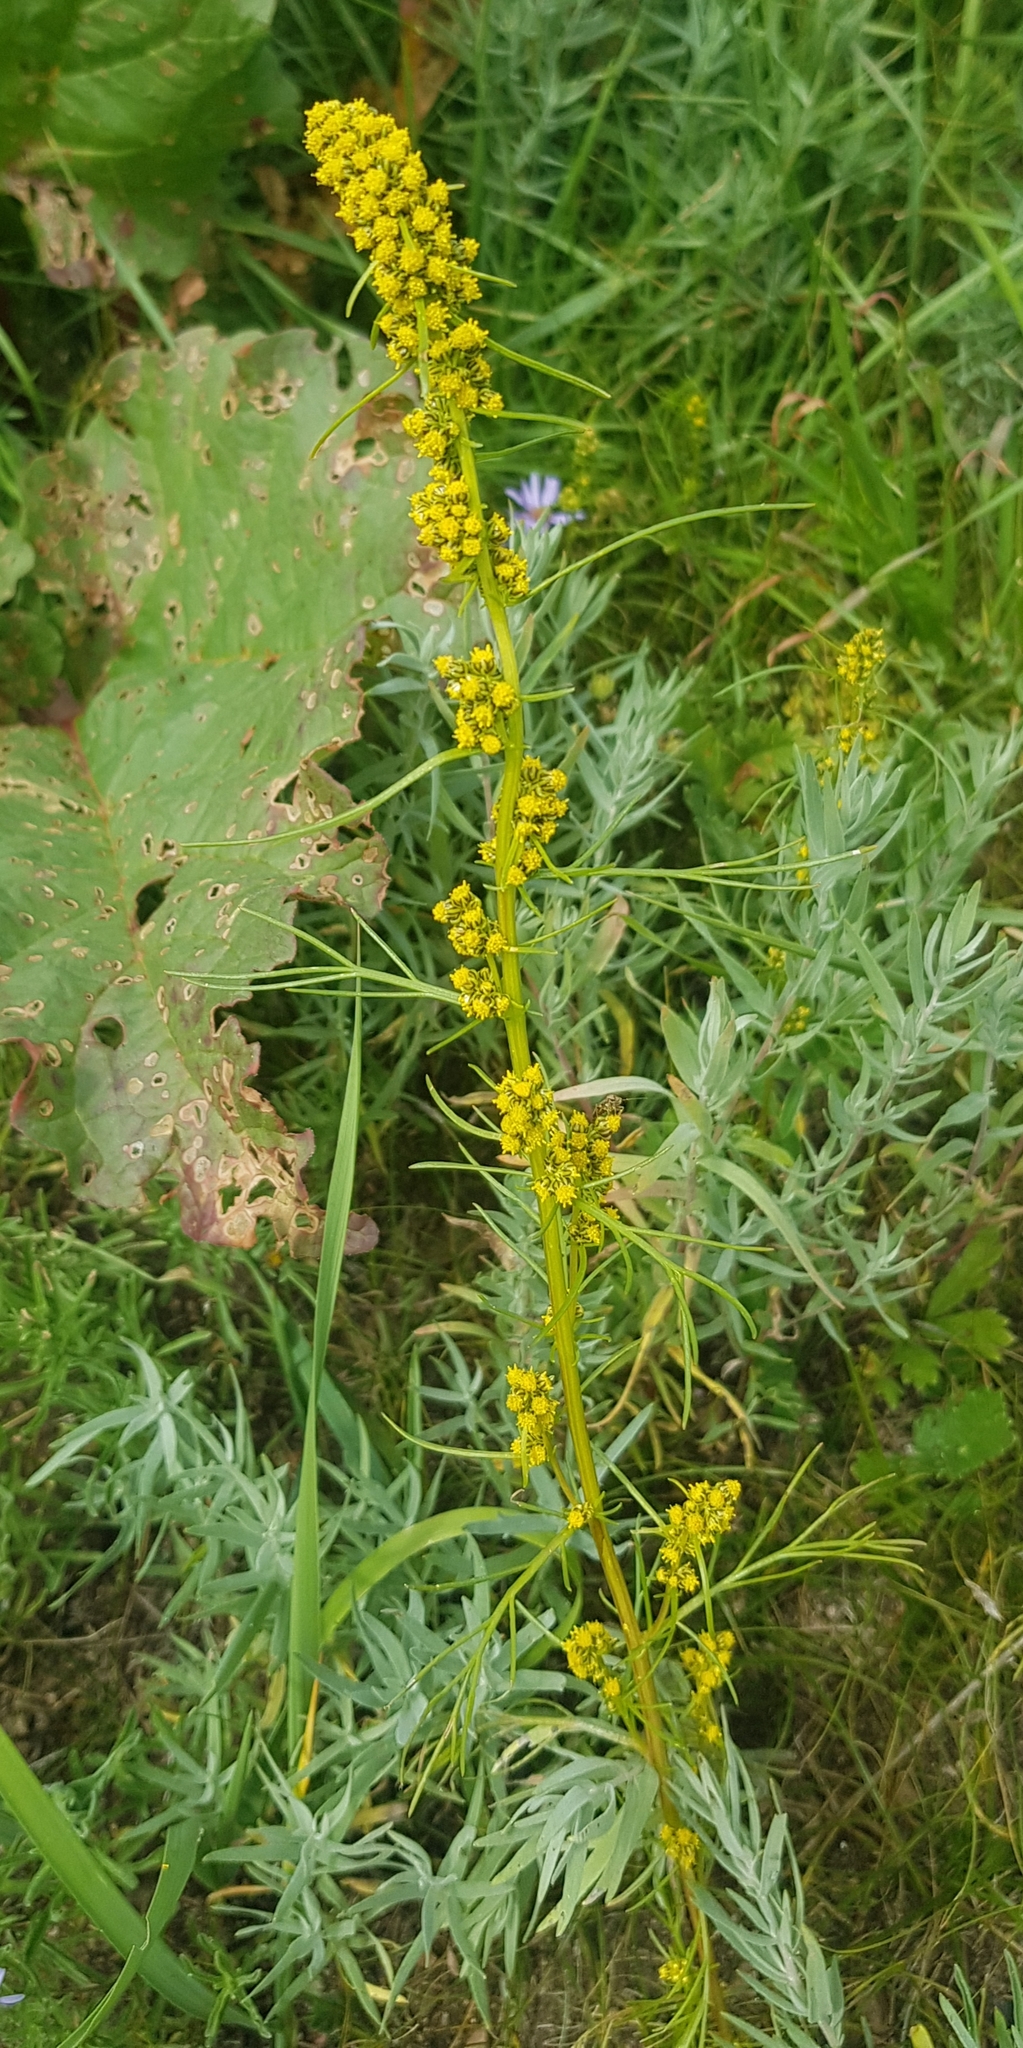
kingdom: Plantae
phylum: Tracheophyta
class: Magnoliopsida
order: Asterales
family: Asteraceae
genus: Artemisia
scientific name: Artemisia palustris
